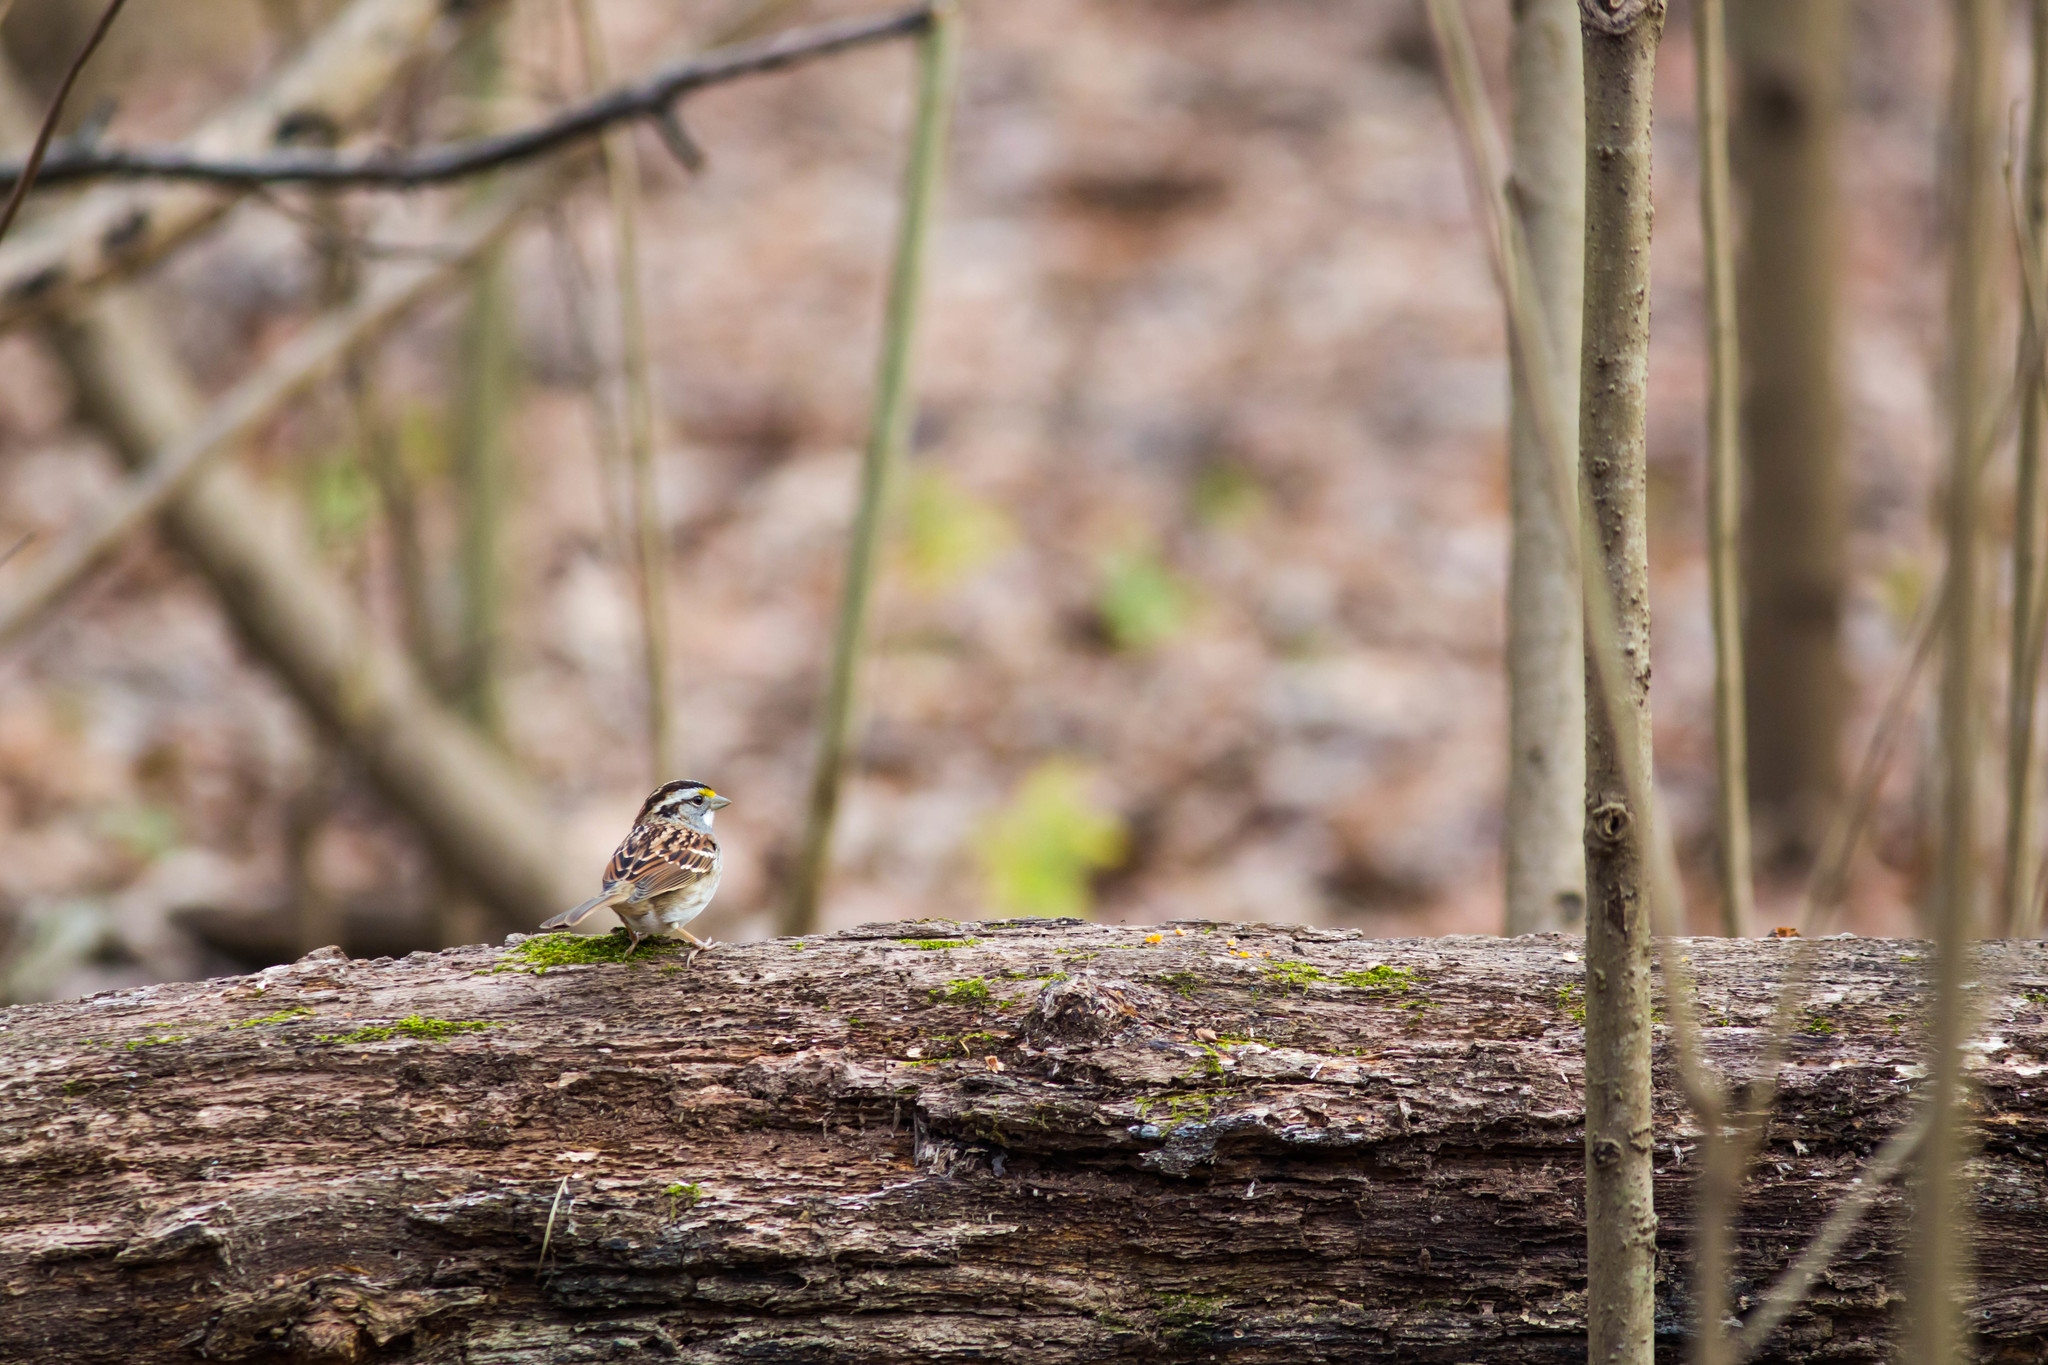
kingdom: Animalia
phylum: Chordata
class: Aves
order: Passeriformes
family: Passerellidae
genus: Zonotrichia
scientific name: Zonotrichia albicollis
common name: White-throated sparrow
